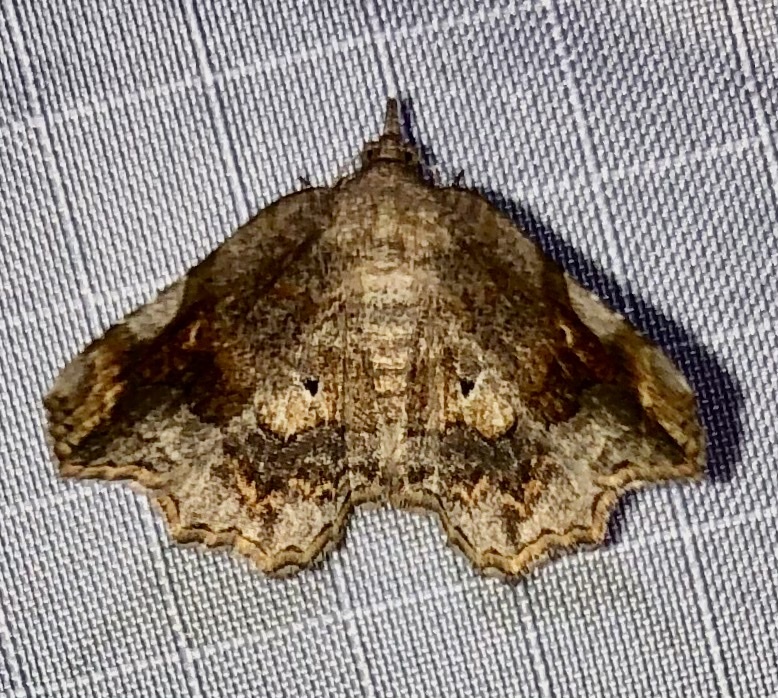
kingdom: Animalia
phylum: Arthropoda
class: Insecta
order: Lepidoptera
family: Erebidae
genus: Pangrapta
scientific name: Pangrapta decoralis
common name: Decorated owlet
